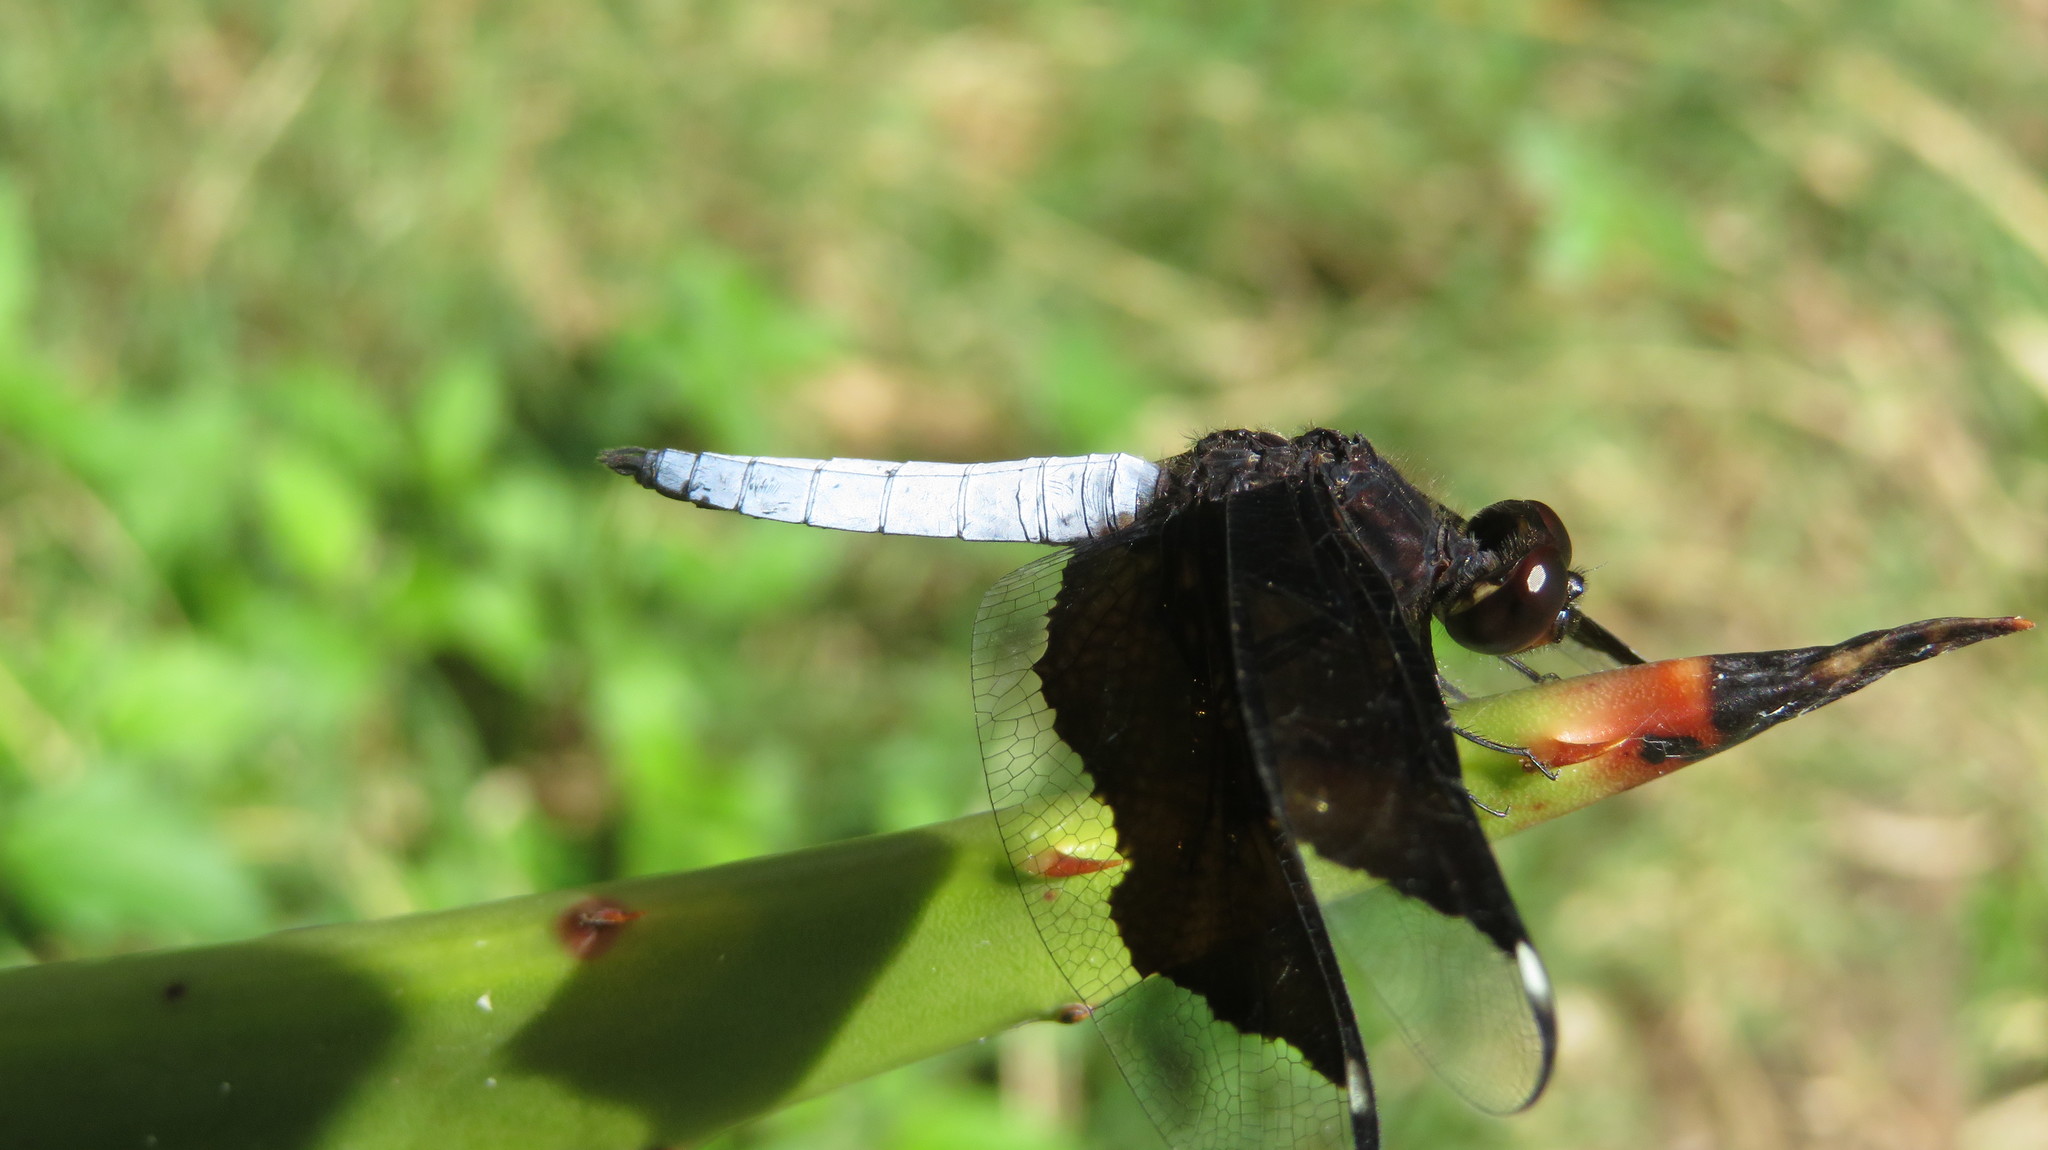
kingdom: Animalia
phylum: Arthropoda
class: Insecta
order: Odonata
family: Libellulidae
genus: Palpopleura
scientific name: Palpopleura lucia
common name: Lucia widow
